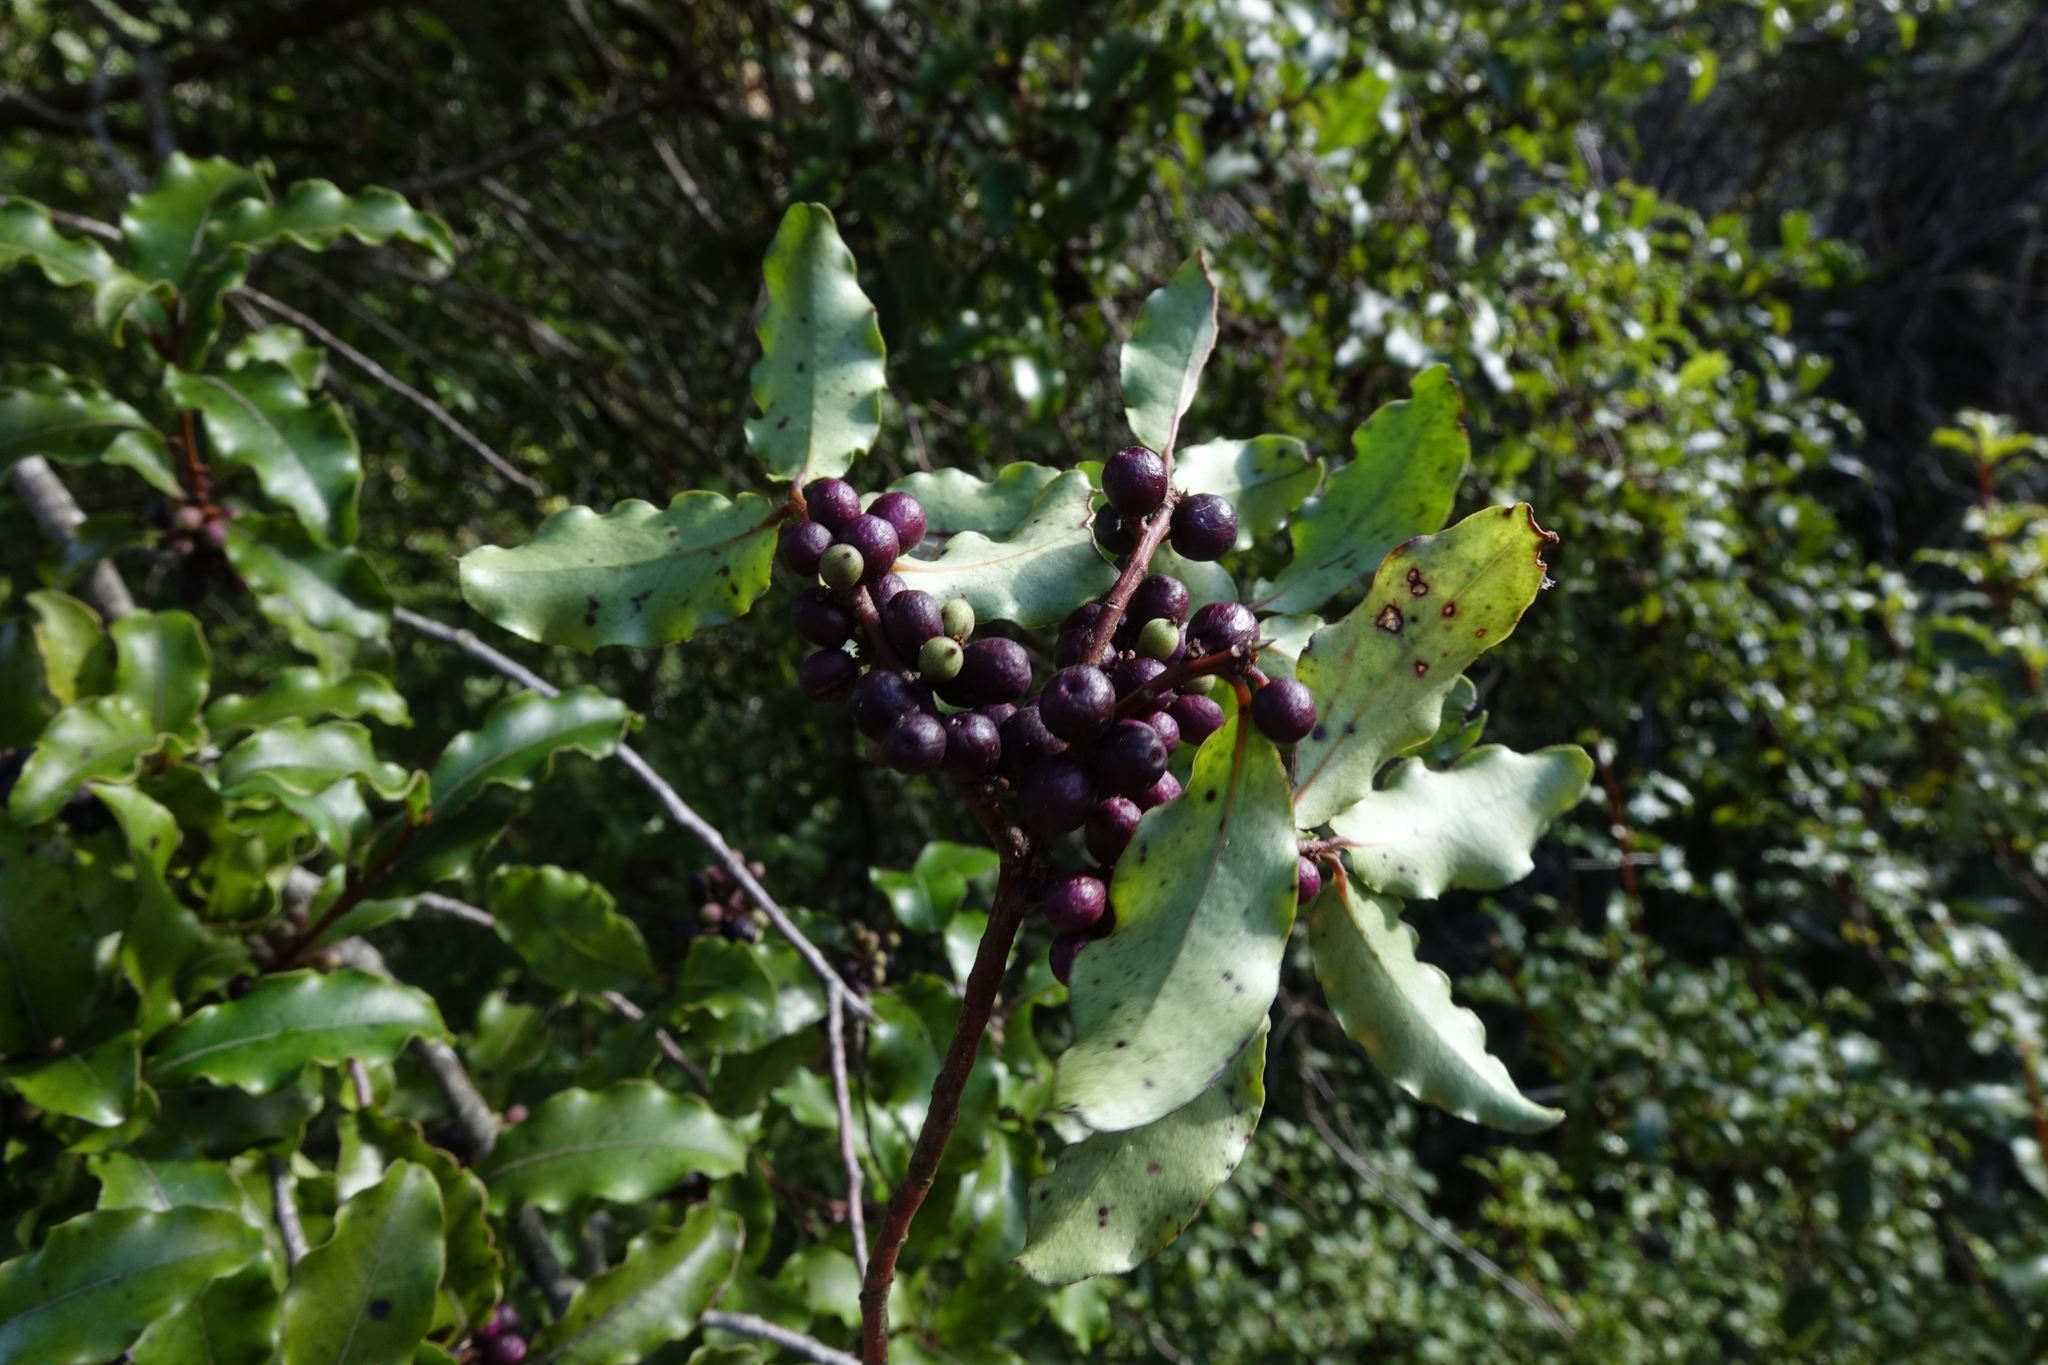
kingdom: Plantae
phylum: Tracheophyta
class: Magnoliopsida
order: Ericales
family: Primulaceae
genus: Myrsine
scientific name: Myrsine australis
